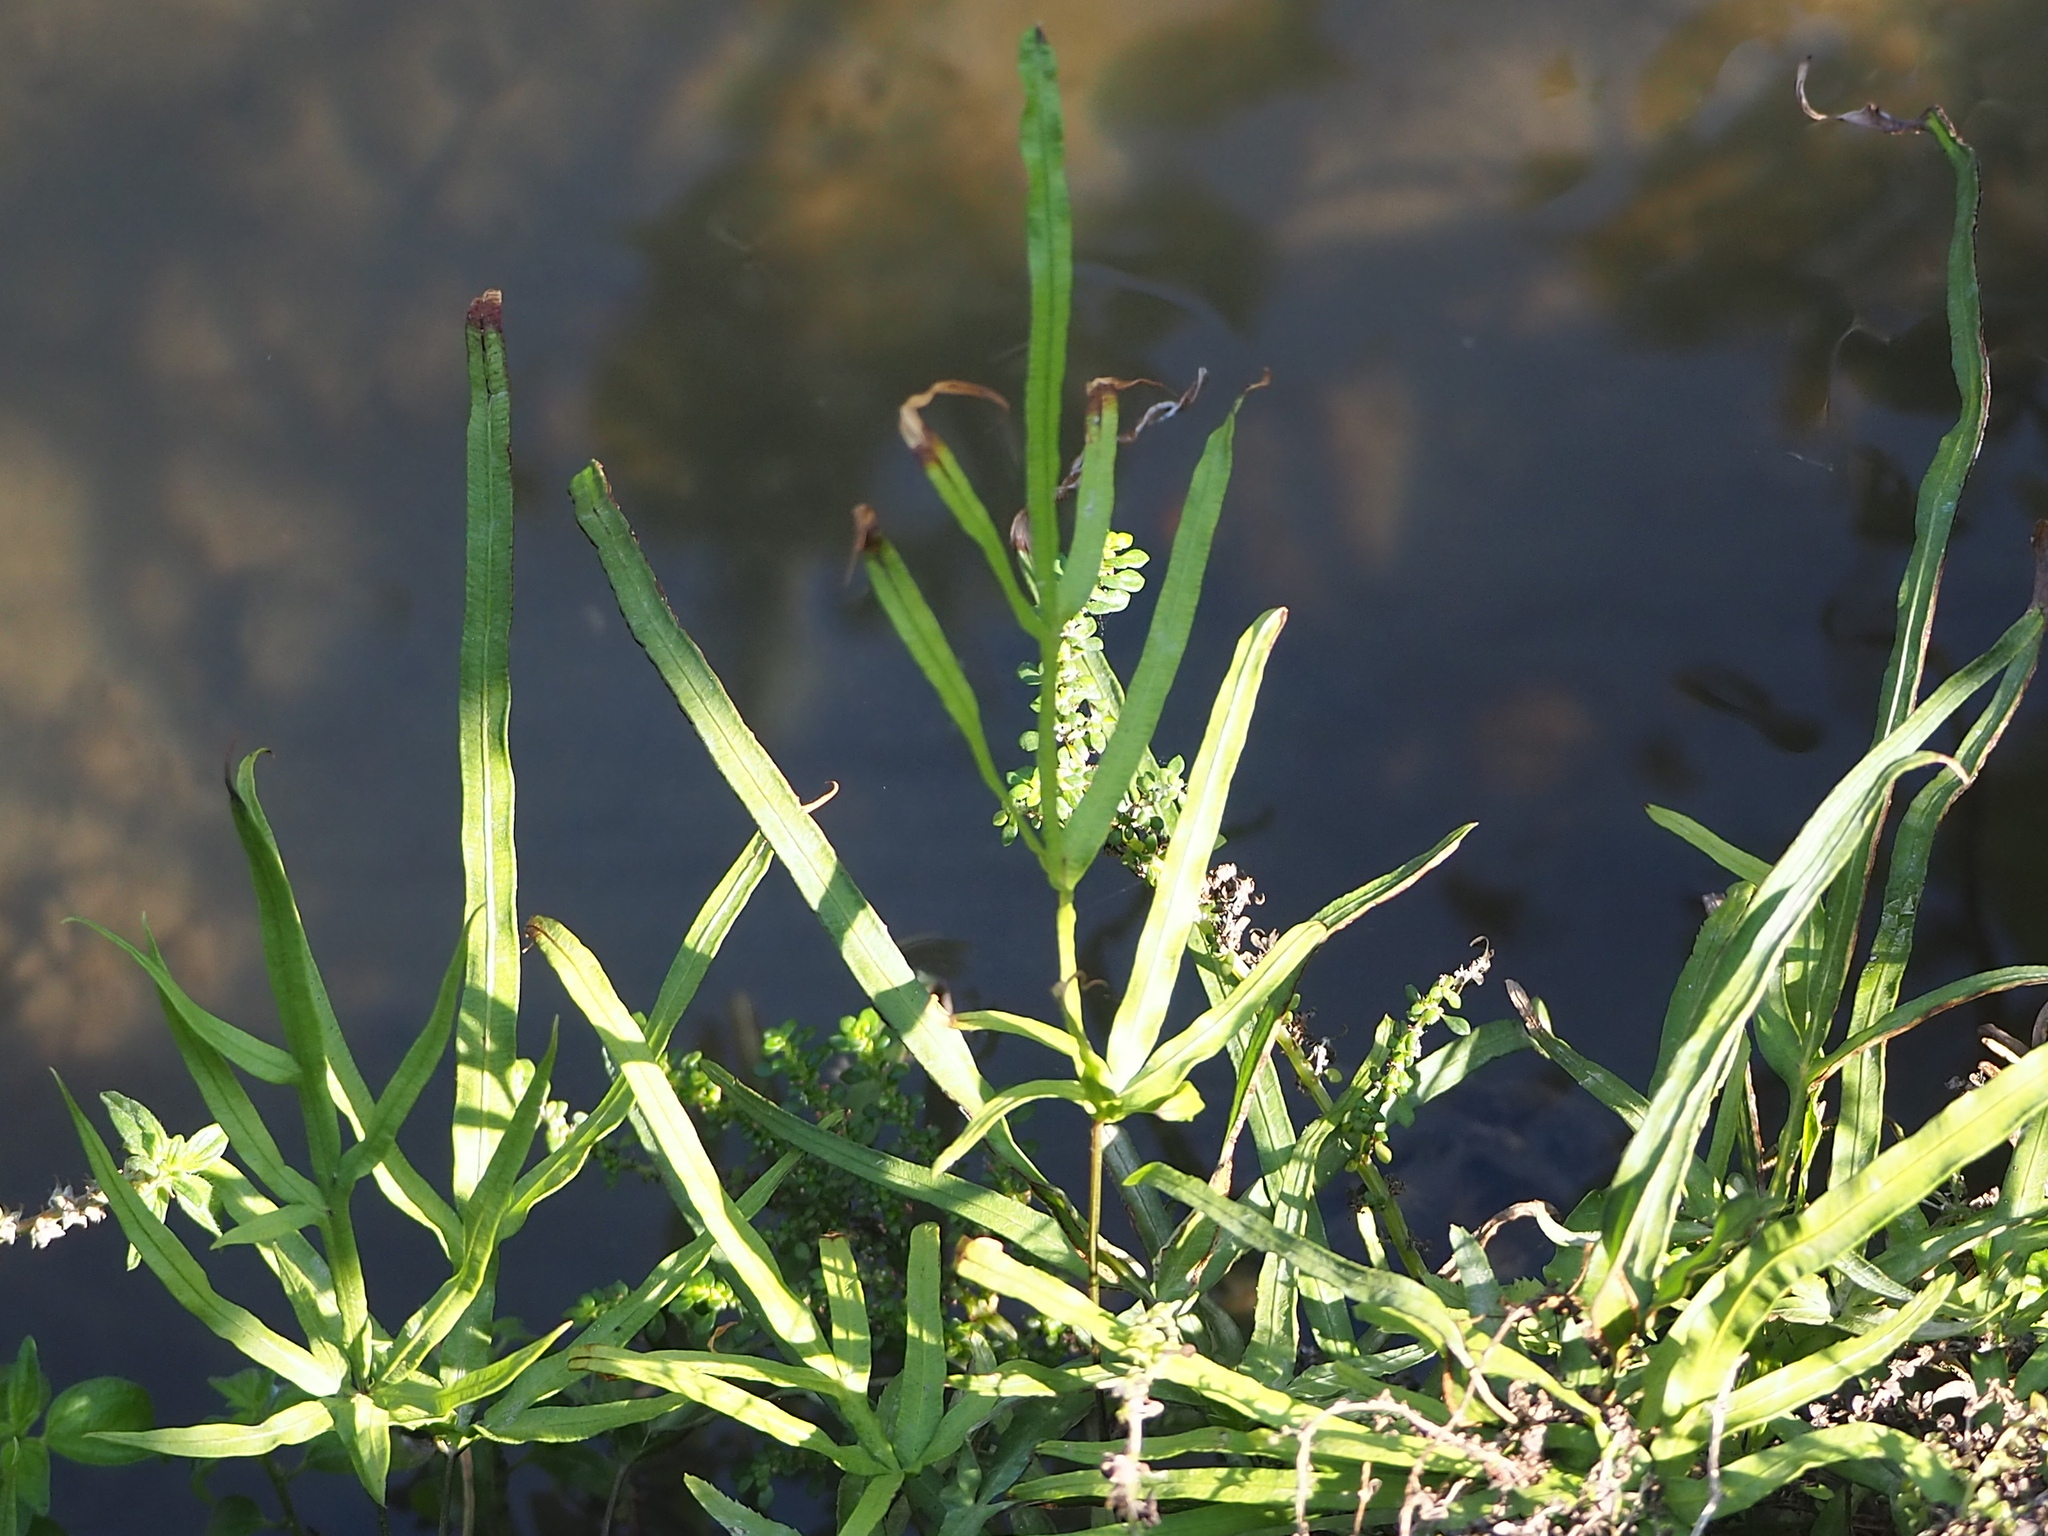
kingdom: Plantae
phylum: Tracheophyta
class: Polypodiopsida
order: Polypodiales
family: Pteridaceae
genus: Pteris
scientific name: Pteris multifida
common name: Spider brake
